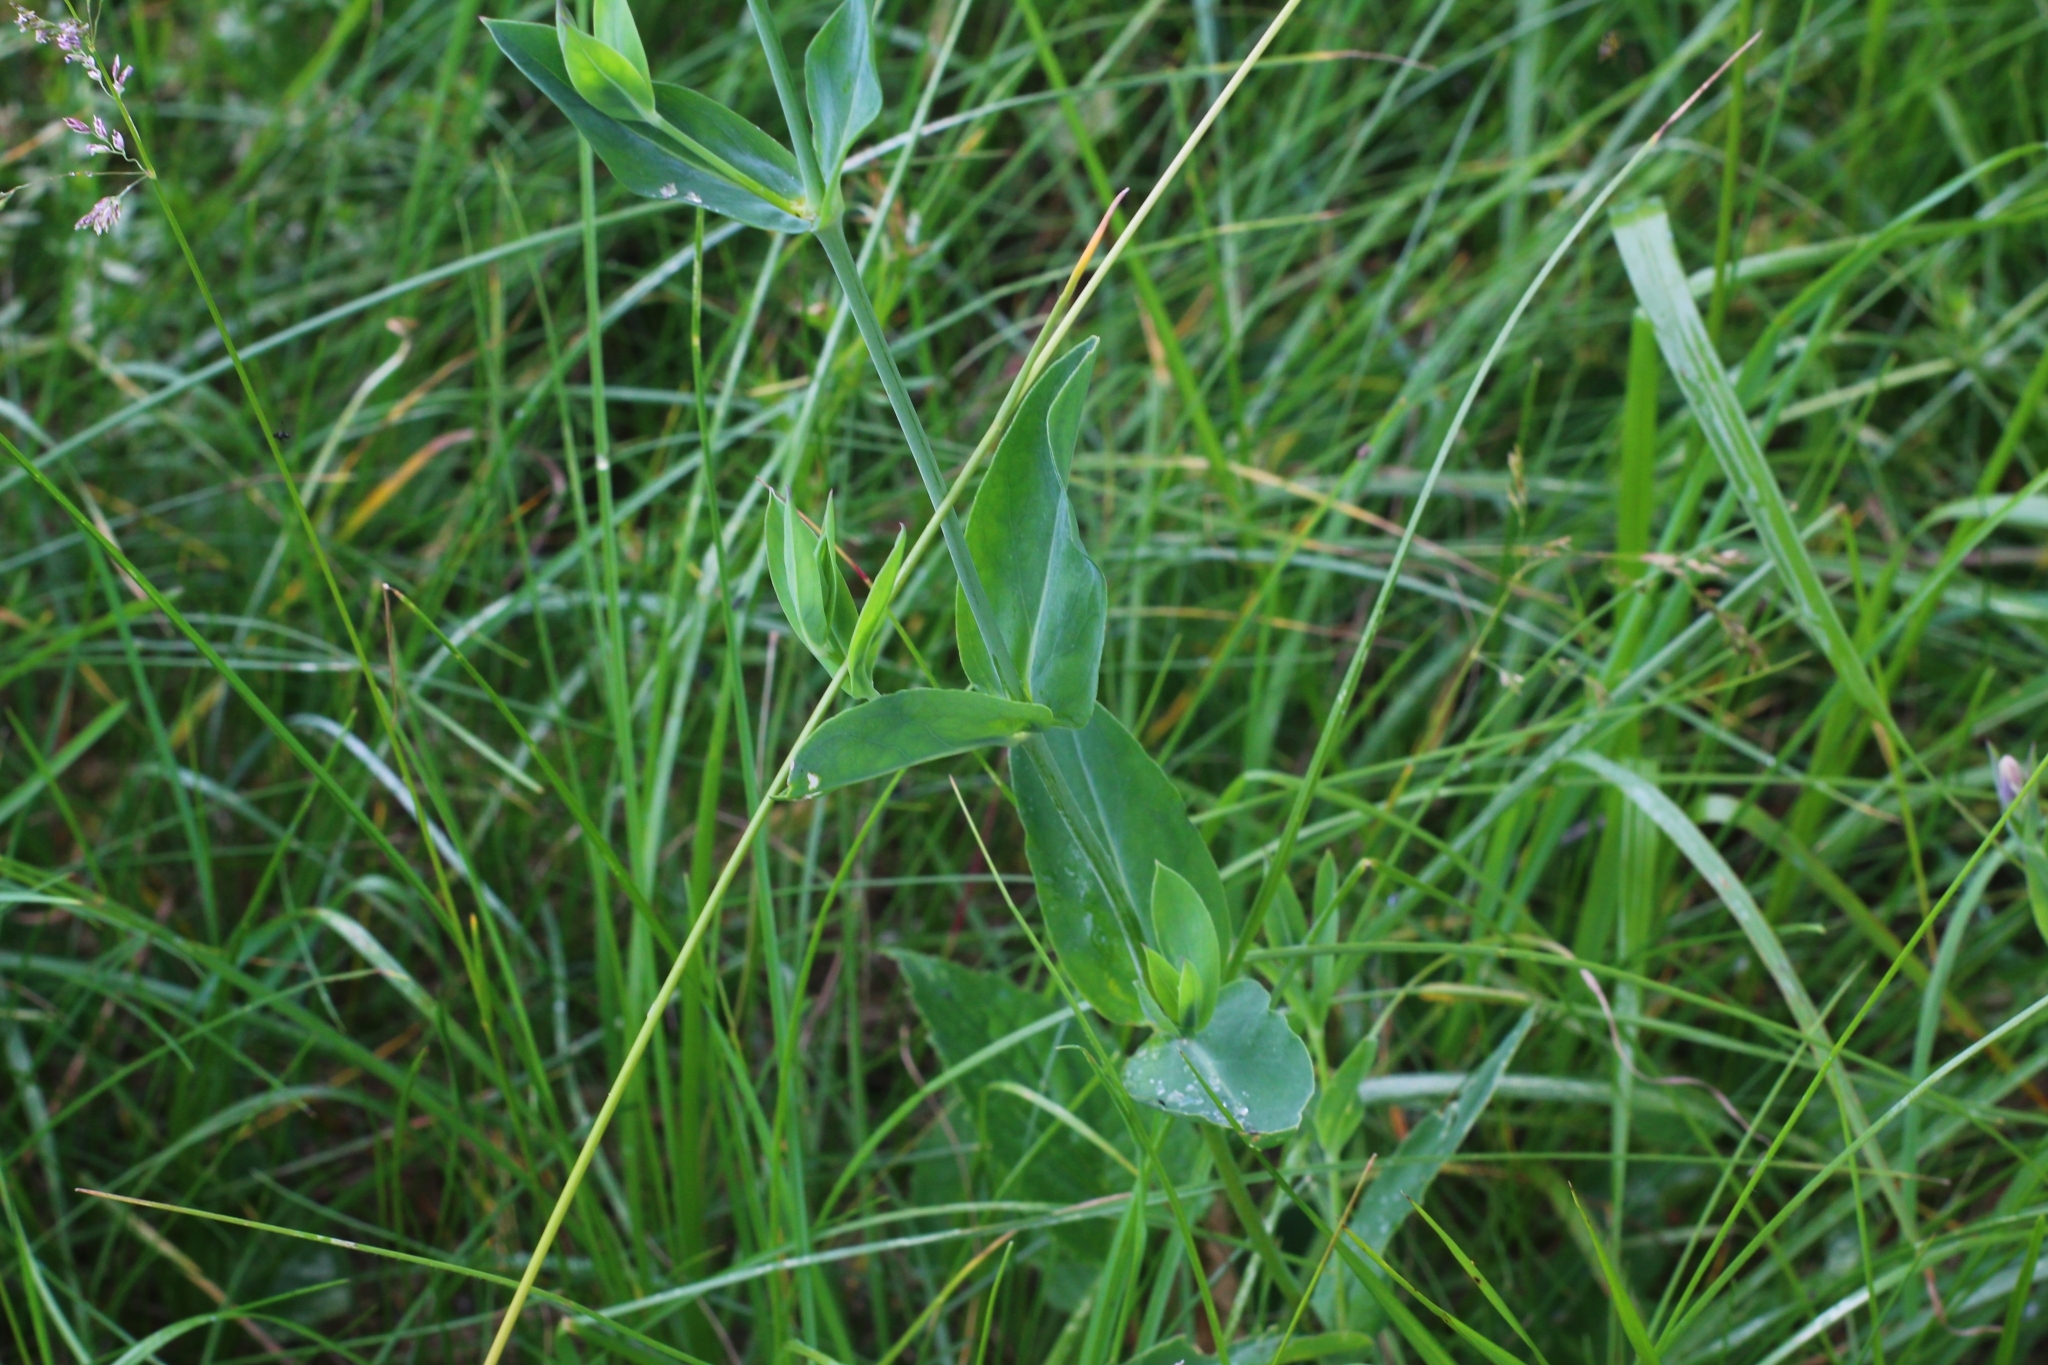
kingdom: Plantae
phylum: Tracheophyta
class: Magnoliopsida
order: Caryophyllales
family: Caryophyllaceae
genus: Silene
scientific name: Silene vulgaris
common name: Bladder campion
